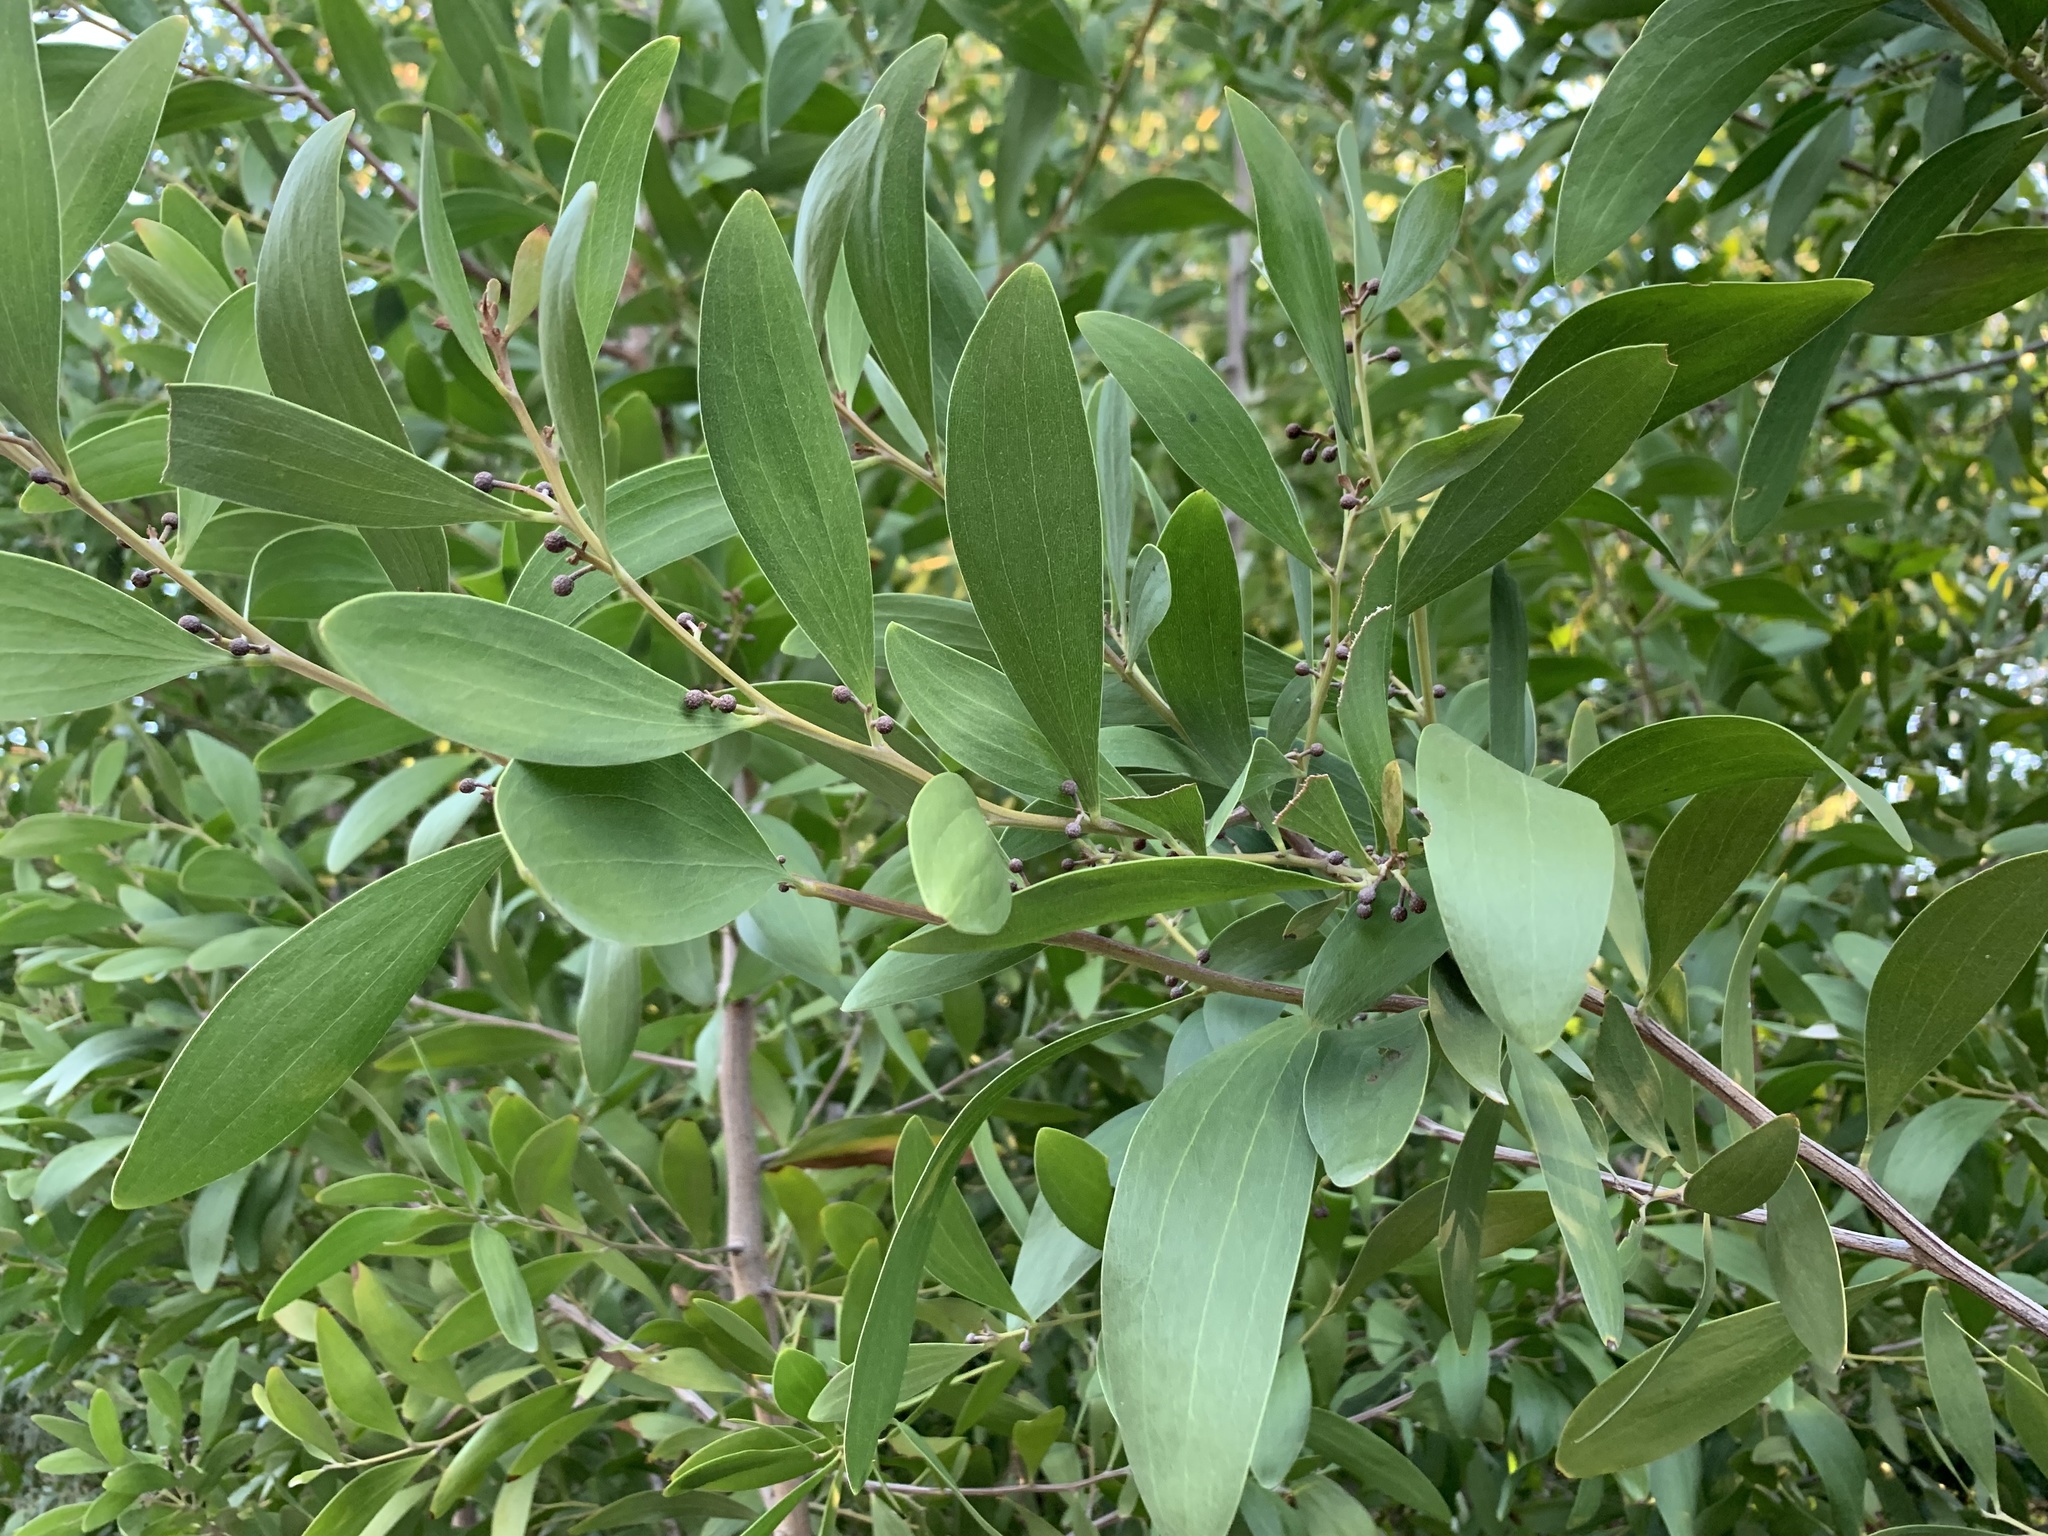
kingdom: Plantae
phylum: Tracheophyta
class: Magnoliopsida
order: Fabales
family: Fabaceae
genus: Acacia
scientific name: Acacia melanoxylon
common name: Blackwood
